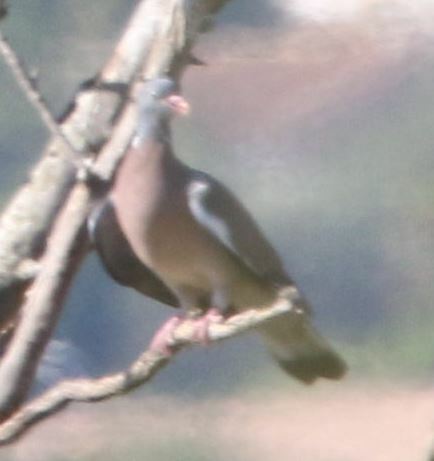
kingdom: Animalia
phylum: Chordata
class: Aves
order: Columbiformes
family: Columbidae
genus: Columba
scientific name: Columba palumbus
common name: Common wood pigeon
